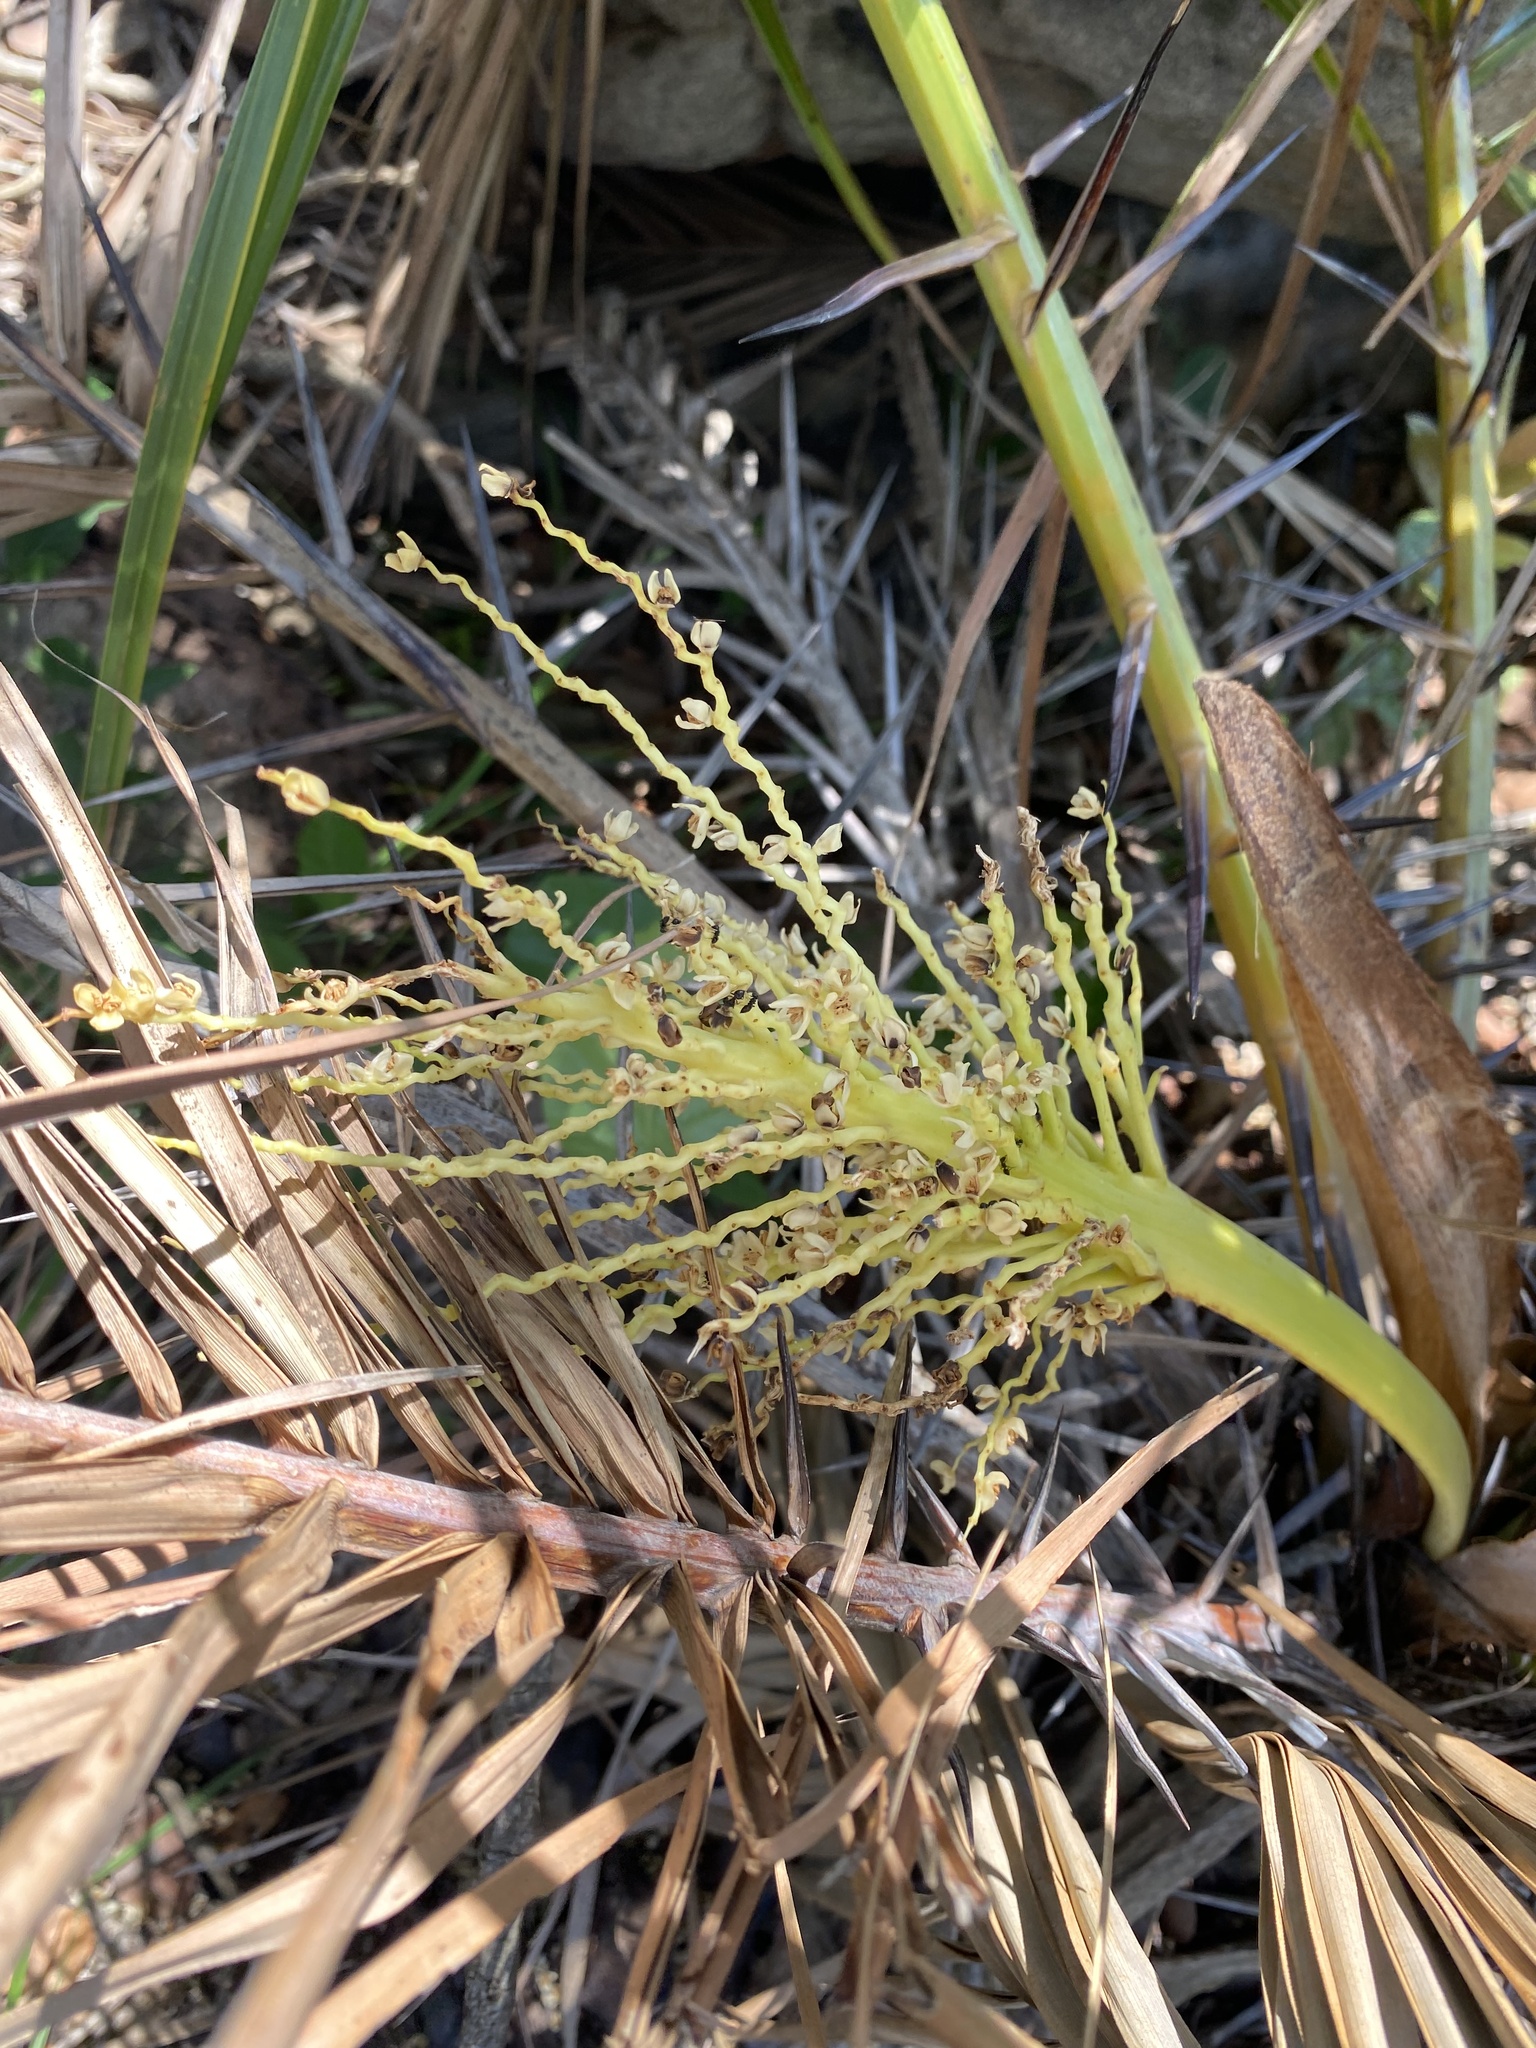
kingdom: Plantae
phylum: Tracheophyta
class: Liliopsida
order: Arecales
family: Arecaceae
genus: Phoenix
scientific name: Phoenix reclinata
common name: Senegal date palm
